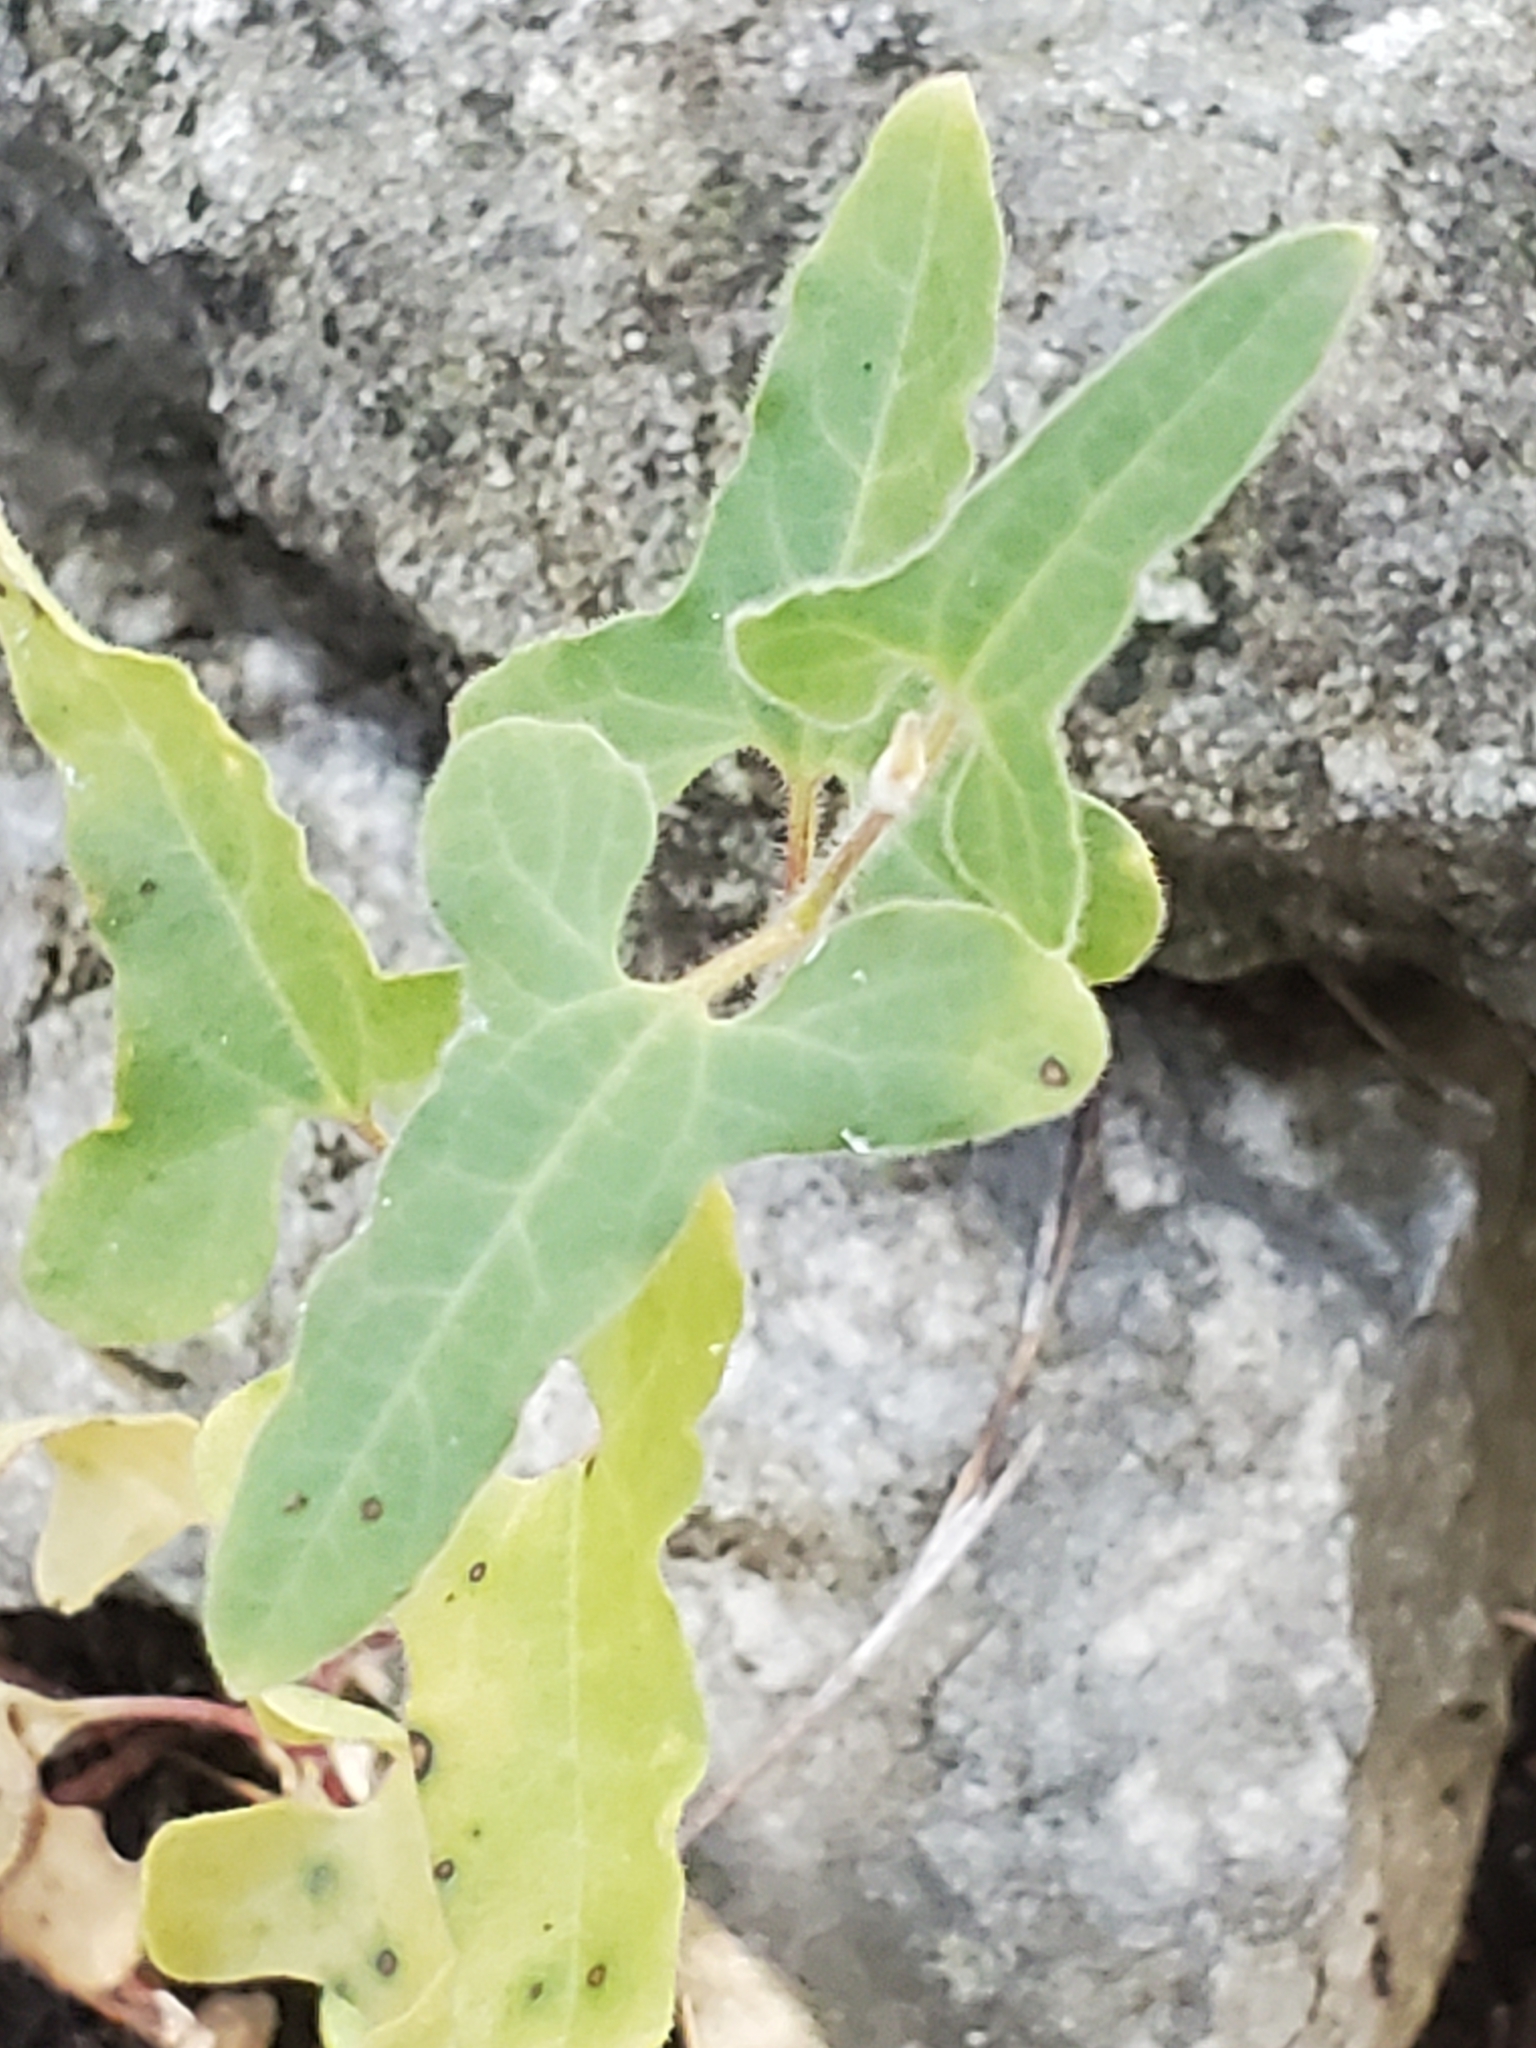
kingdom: Plantae
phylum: Tracheophyta
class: Magnoliopsida
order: Piperales
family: Aristolochiaceae
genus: Aristolochia
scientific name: Aristolochia coryi
